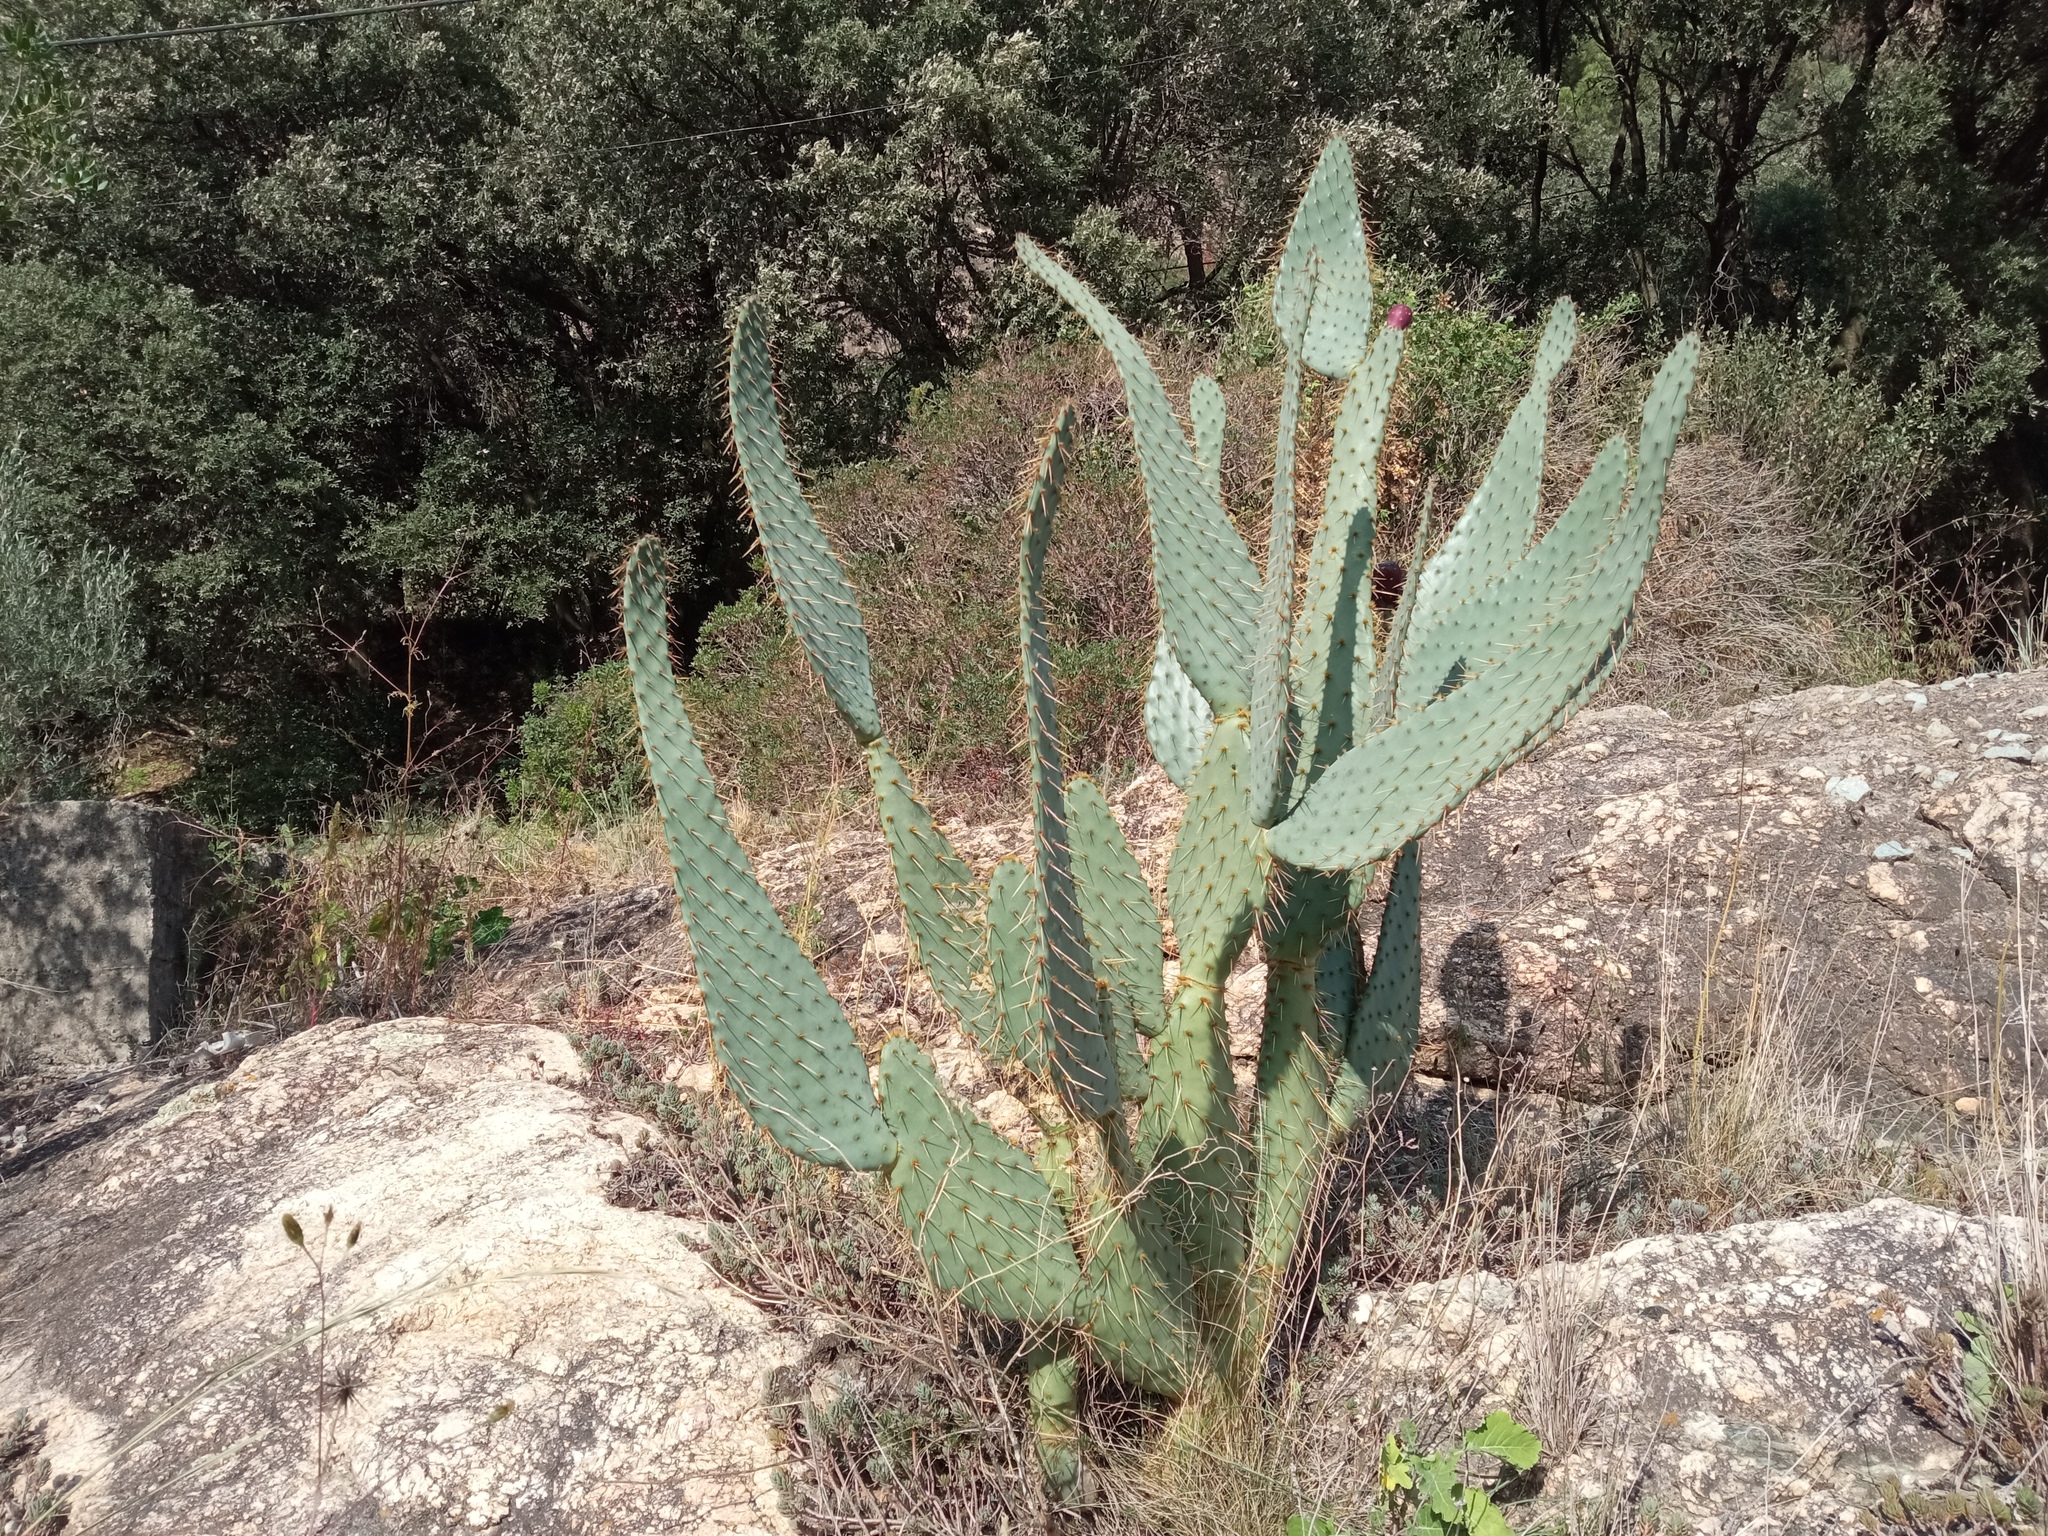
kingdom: Plantae
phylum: Tracheophyta
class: Magnoliopsida
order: Caryophyllales
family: Cactaceae
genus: Opuntia
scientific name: Opuntia engelmannii
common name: Cactus-apple
